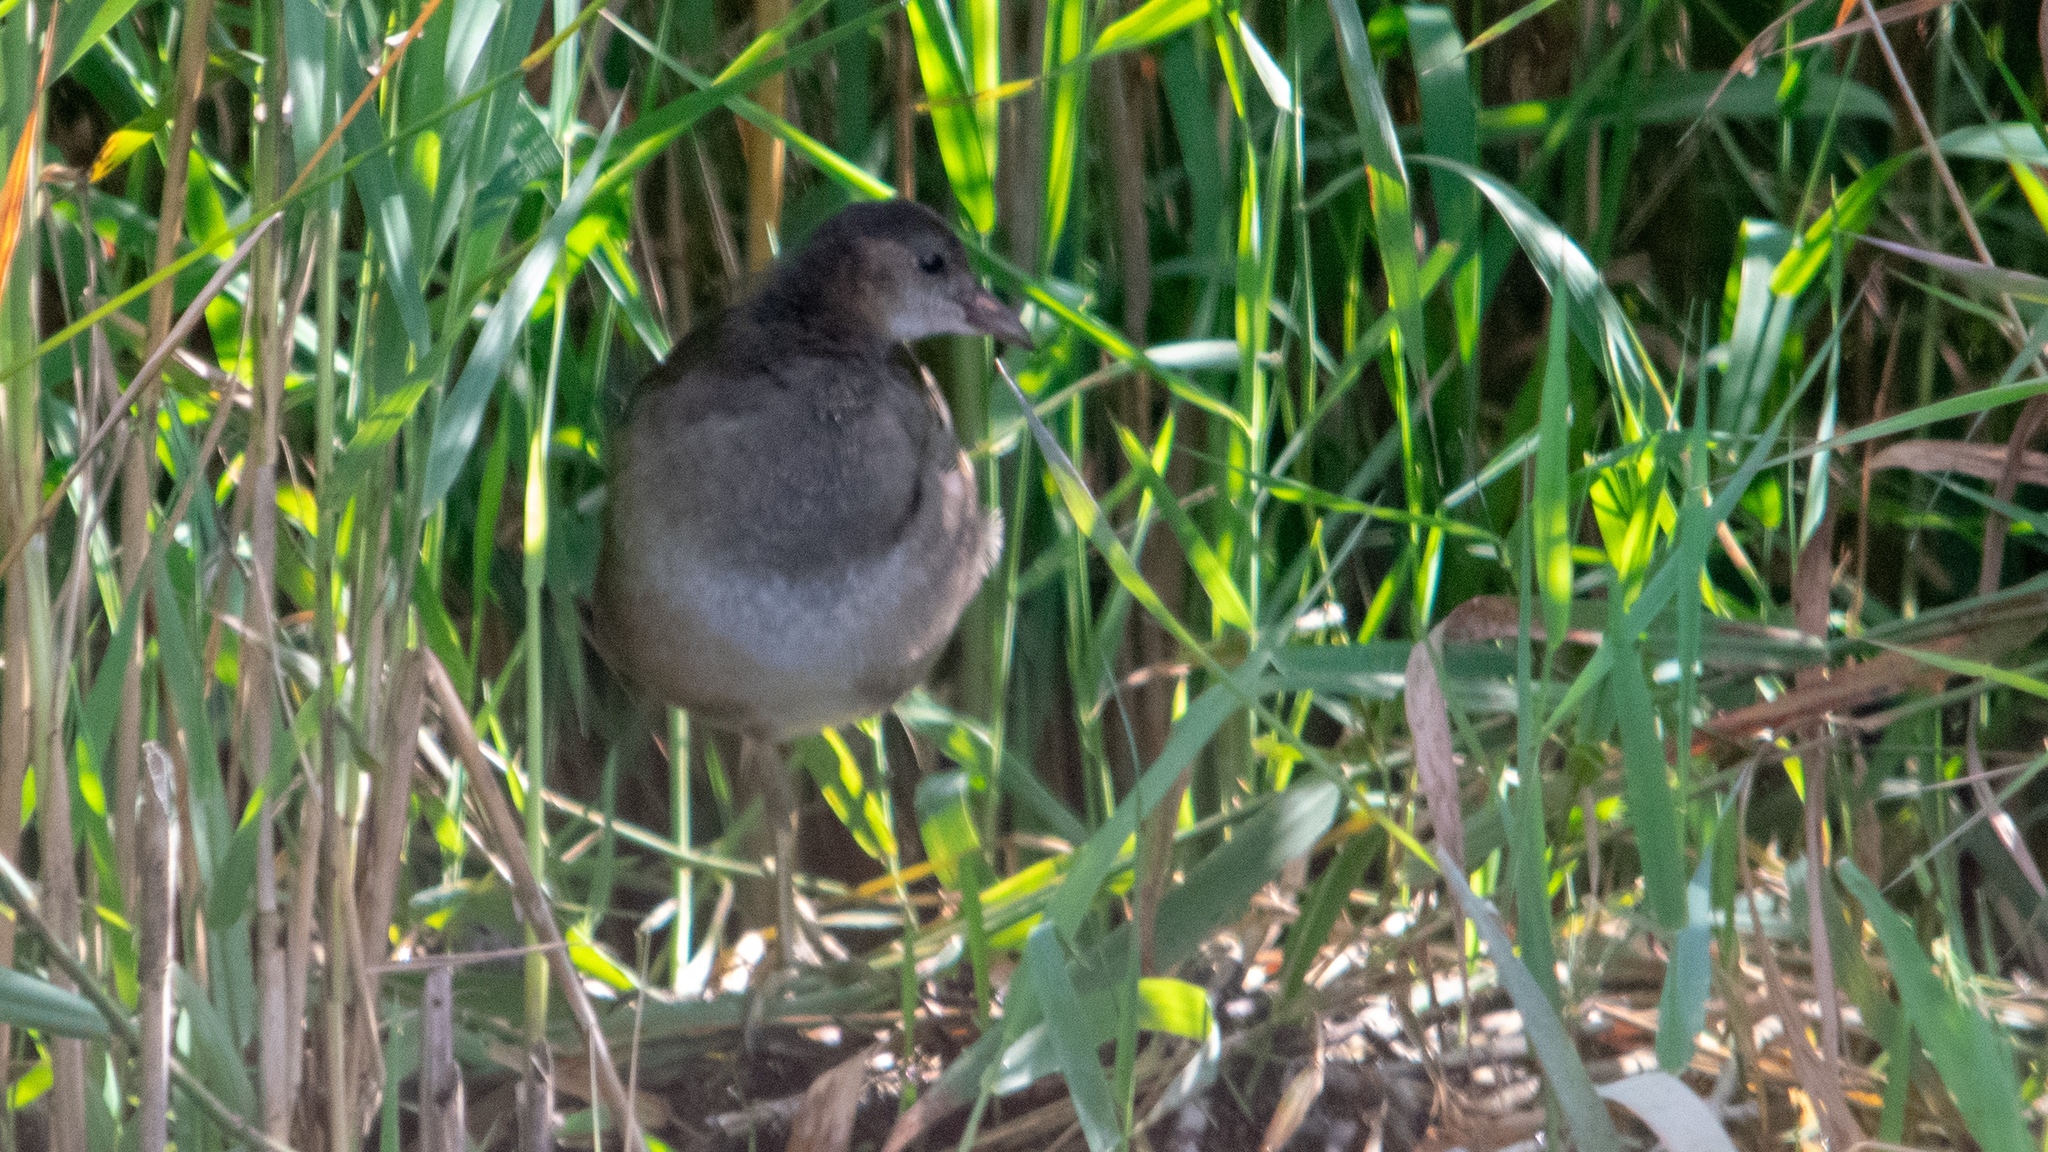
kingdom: Animalia
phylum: Chordata
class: Aves
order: Gruiformes
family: Rallidae
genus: Gallinula
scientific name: Gallinula chloropus
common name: Common moorhen
